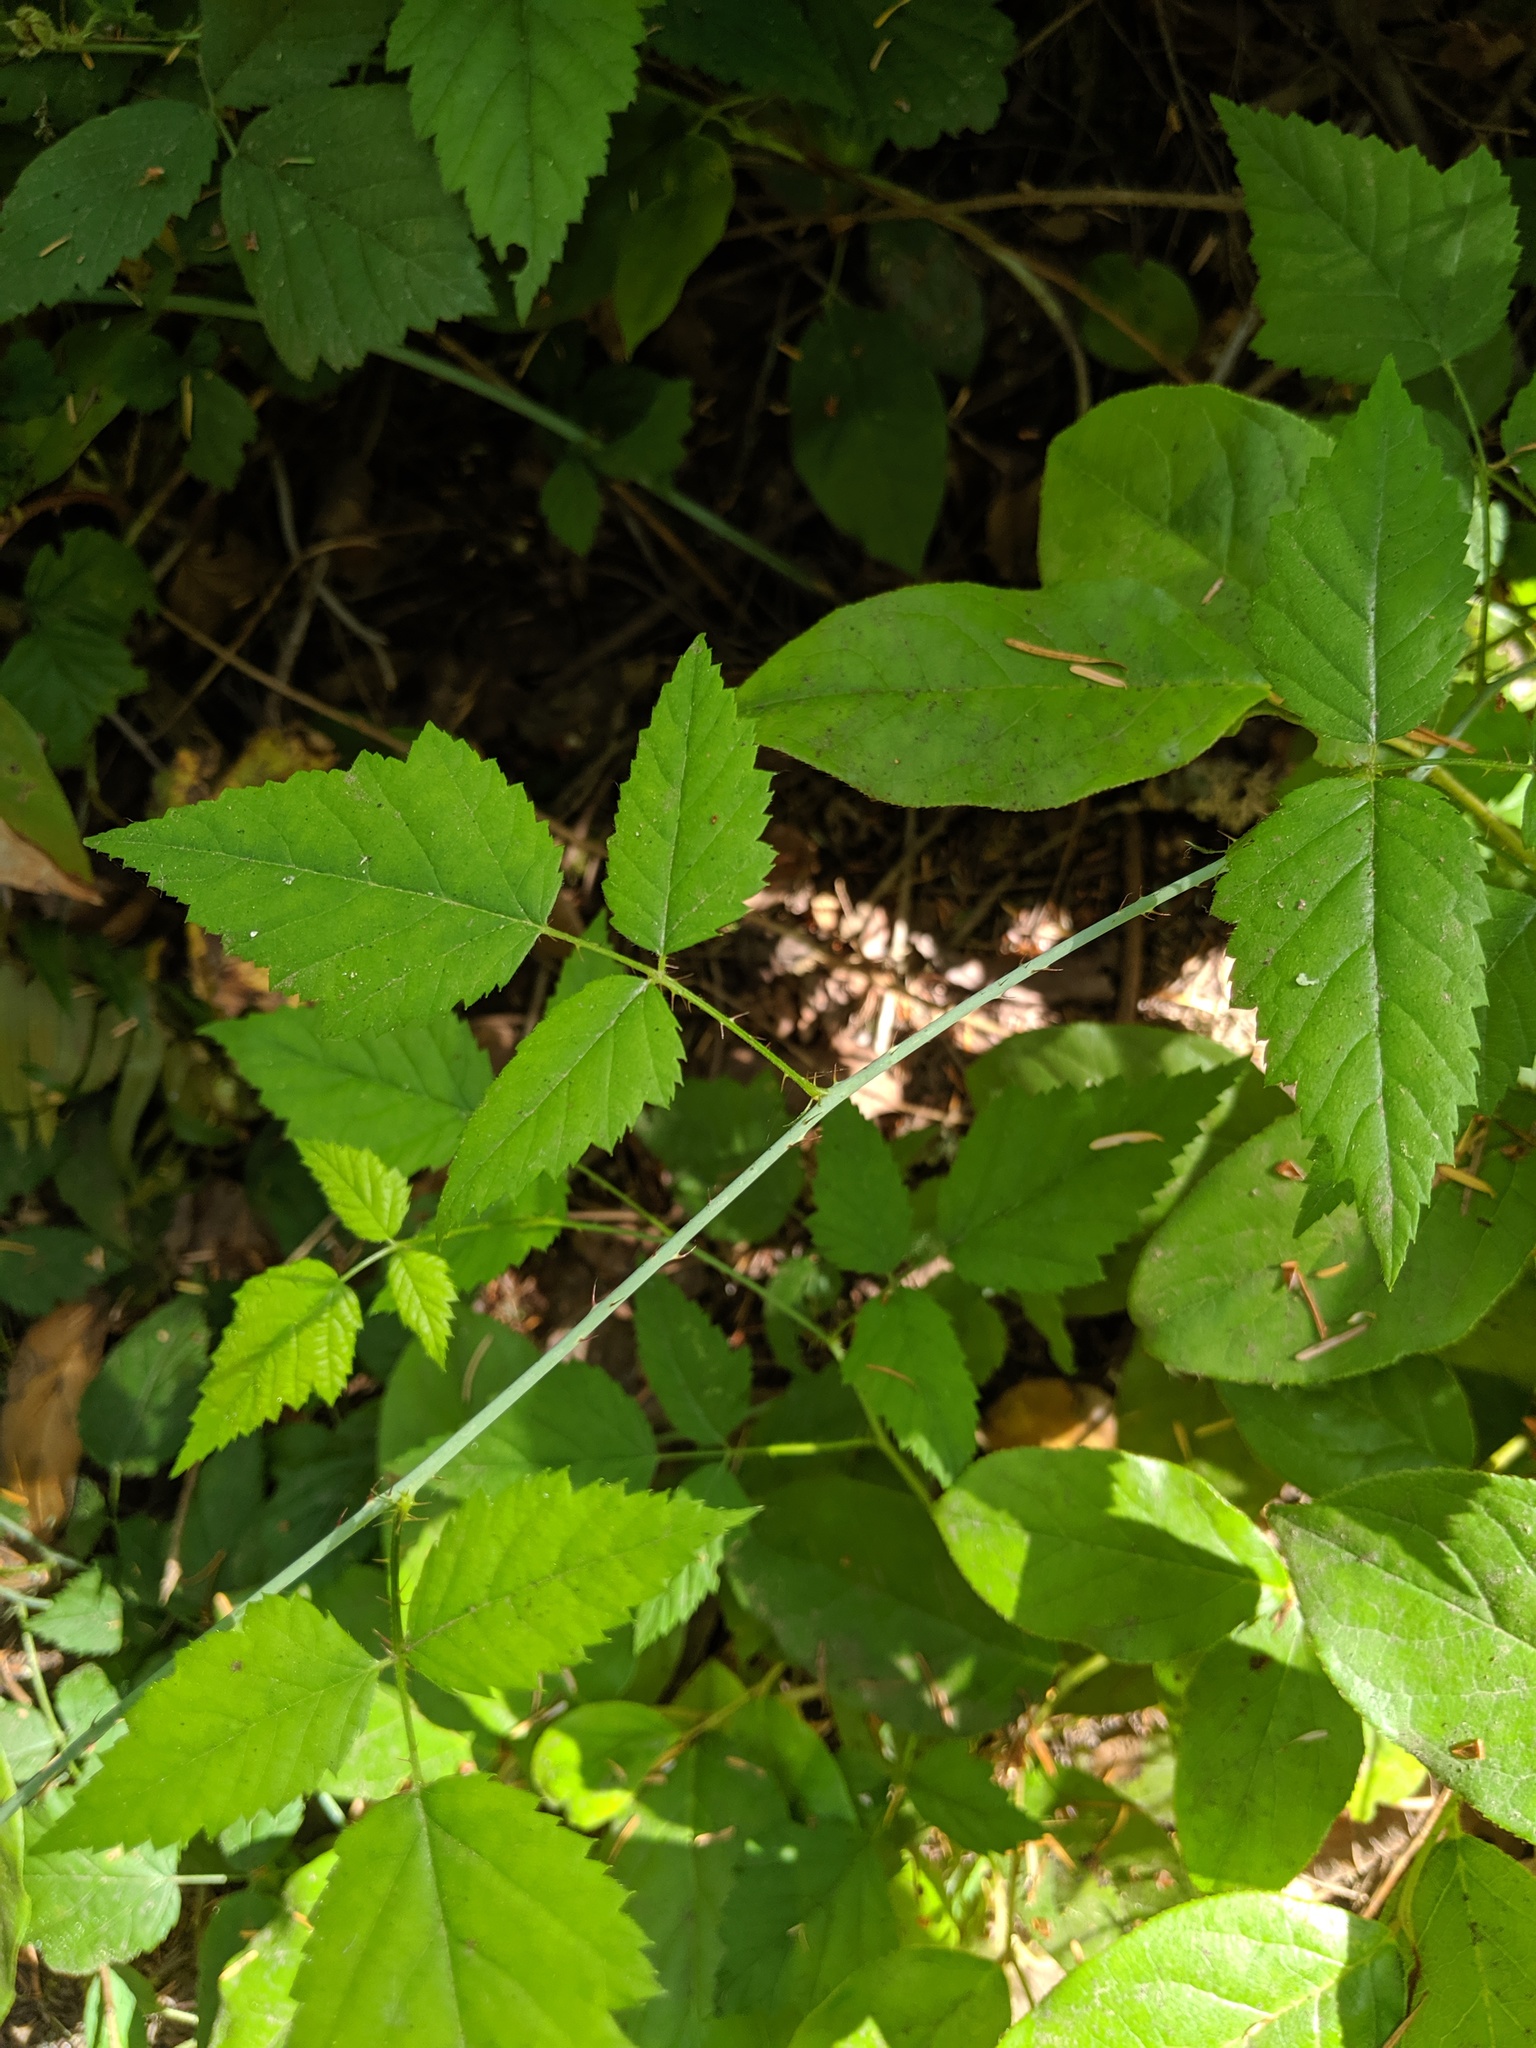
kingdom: Plantae
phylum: Tracheophyta
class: Magnoliopsida
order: Rosales
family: Rosaceae
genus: Rubus
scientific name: Rubus ursinus
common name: Pacific blackberry
